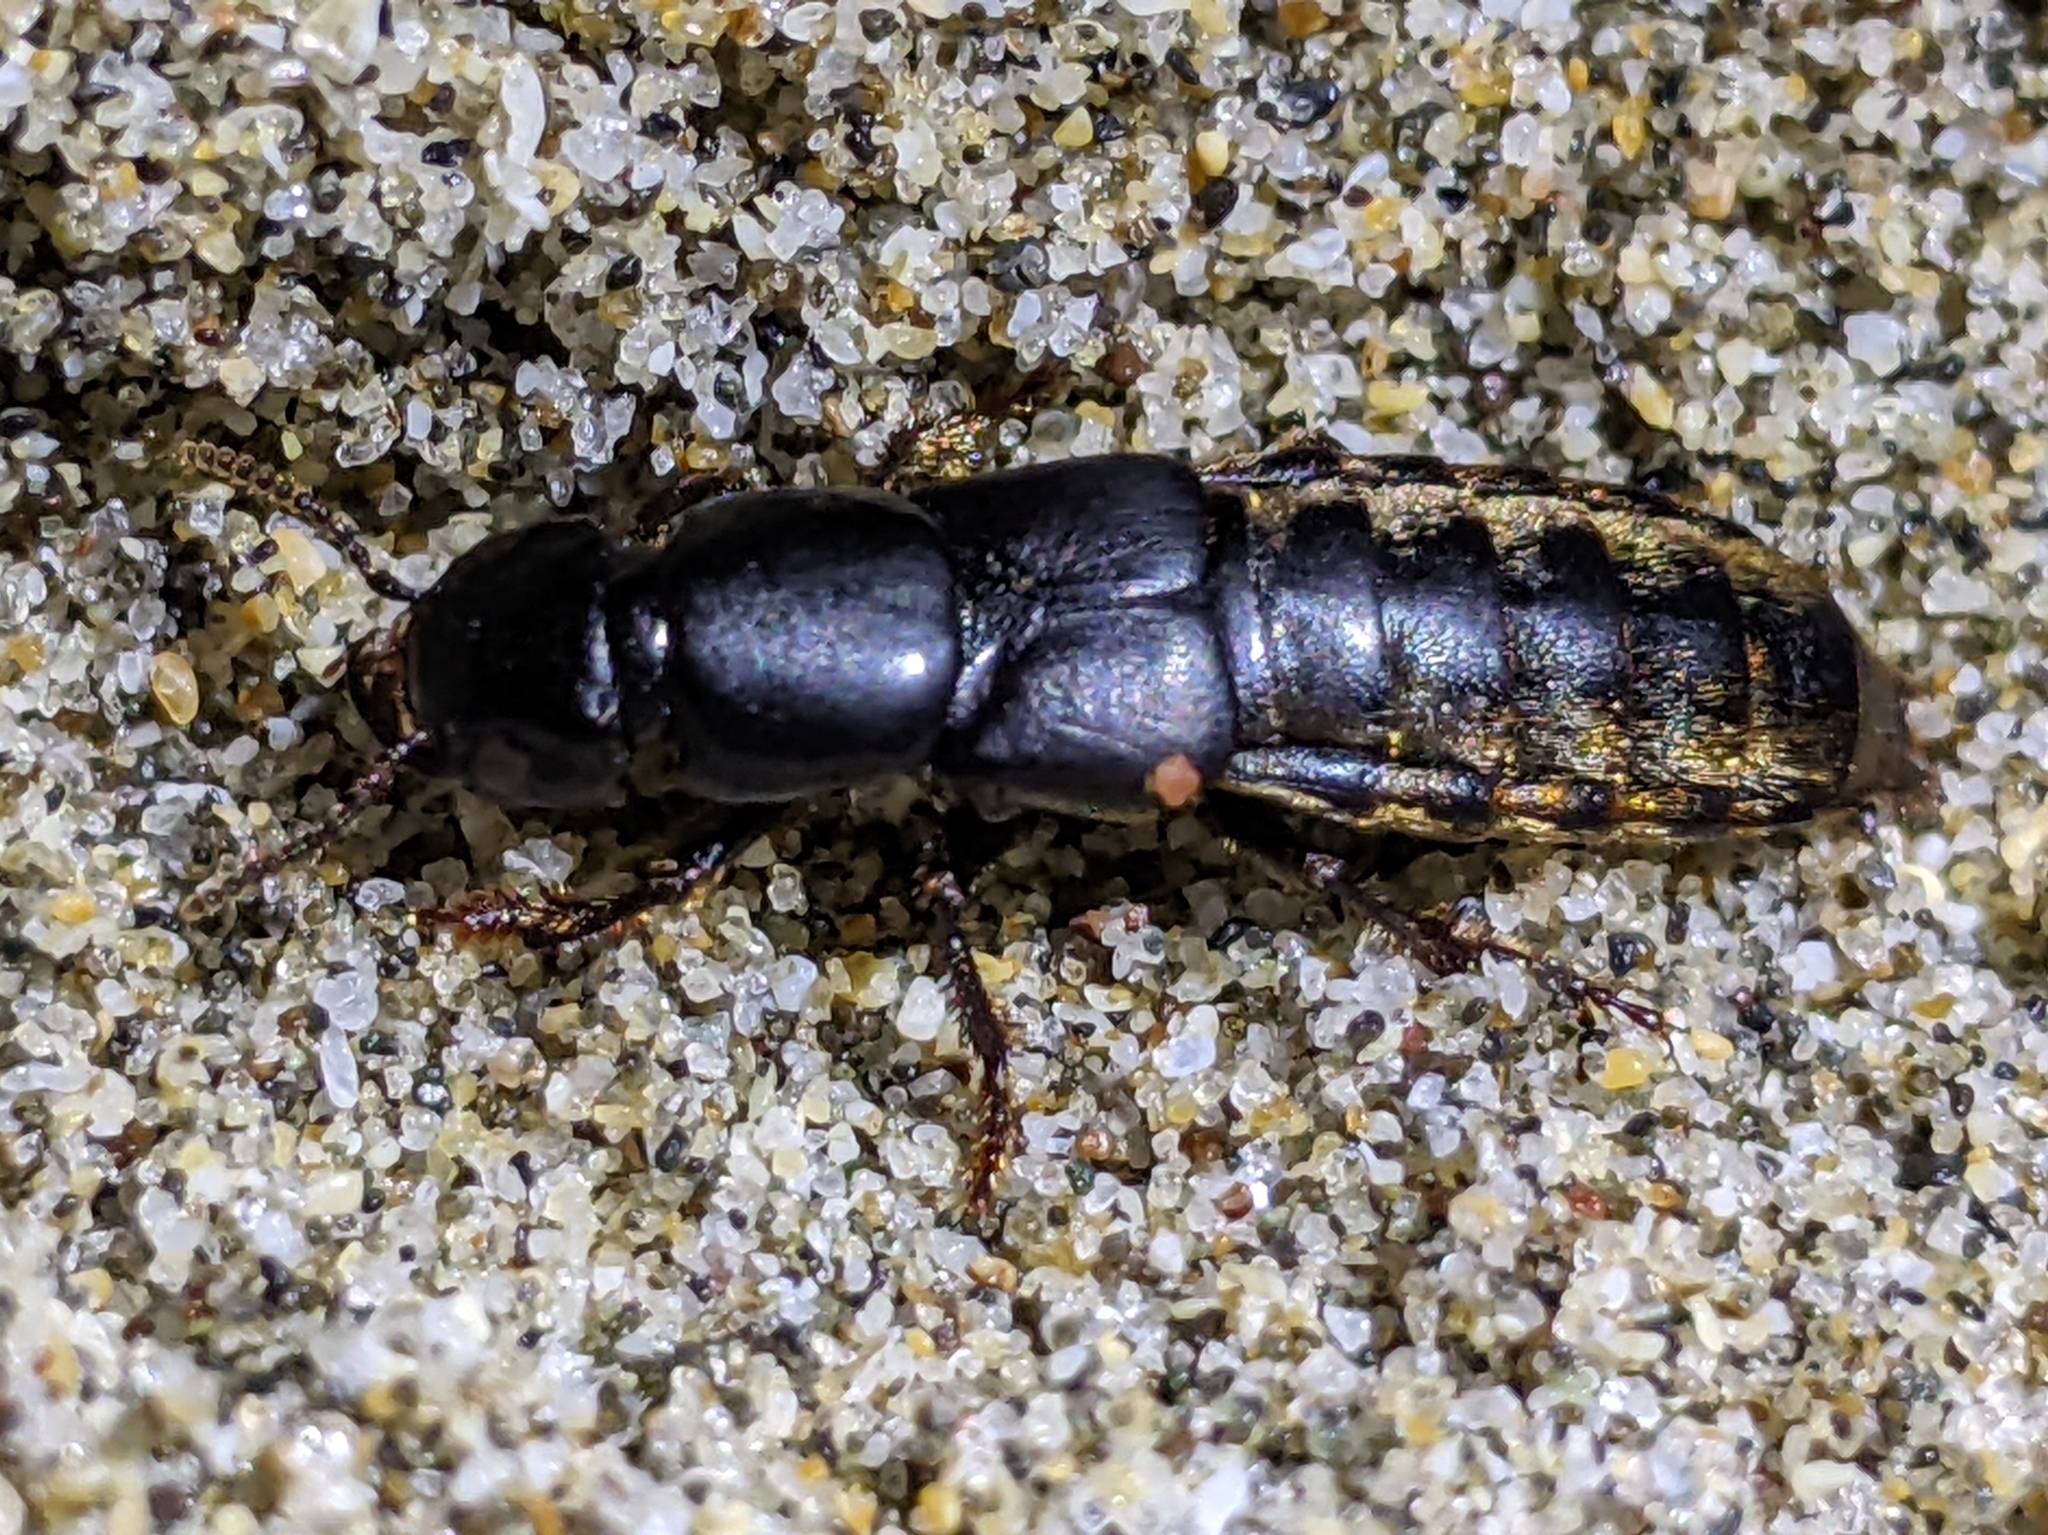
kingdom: Animalia
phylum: Arthropoda
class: Insecta
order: Coleoptera
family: Staphylinidae
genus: Hadrotes
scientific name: Hadrotes crassus
